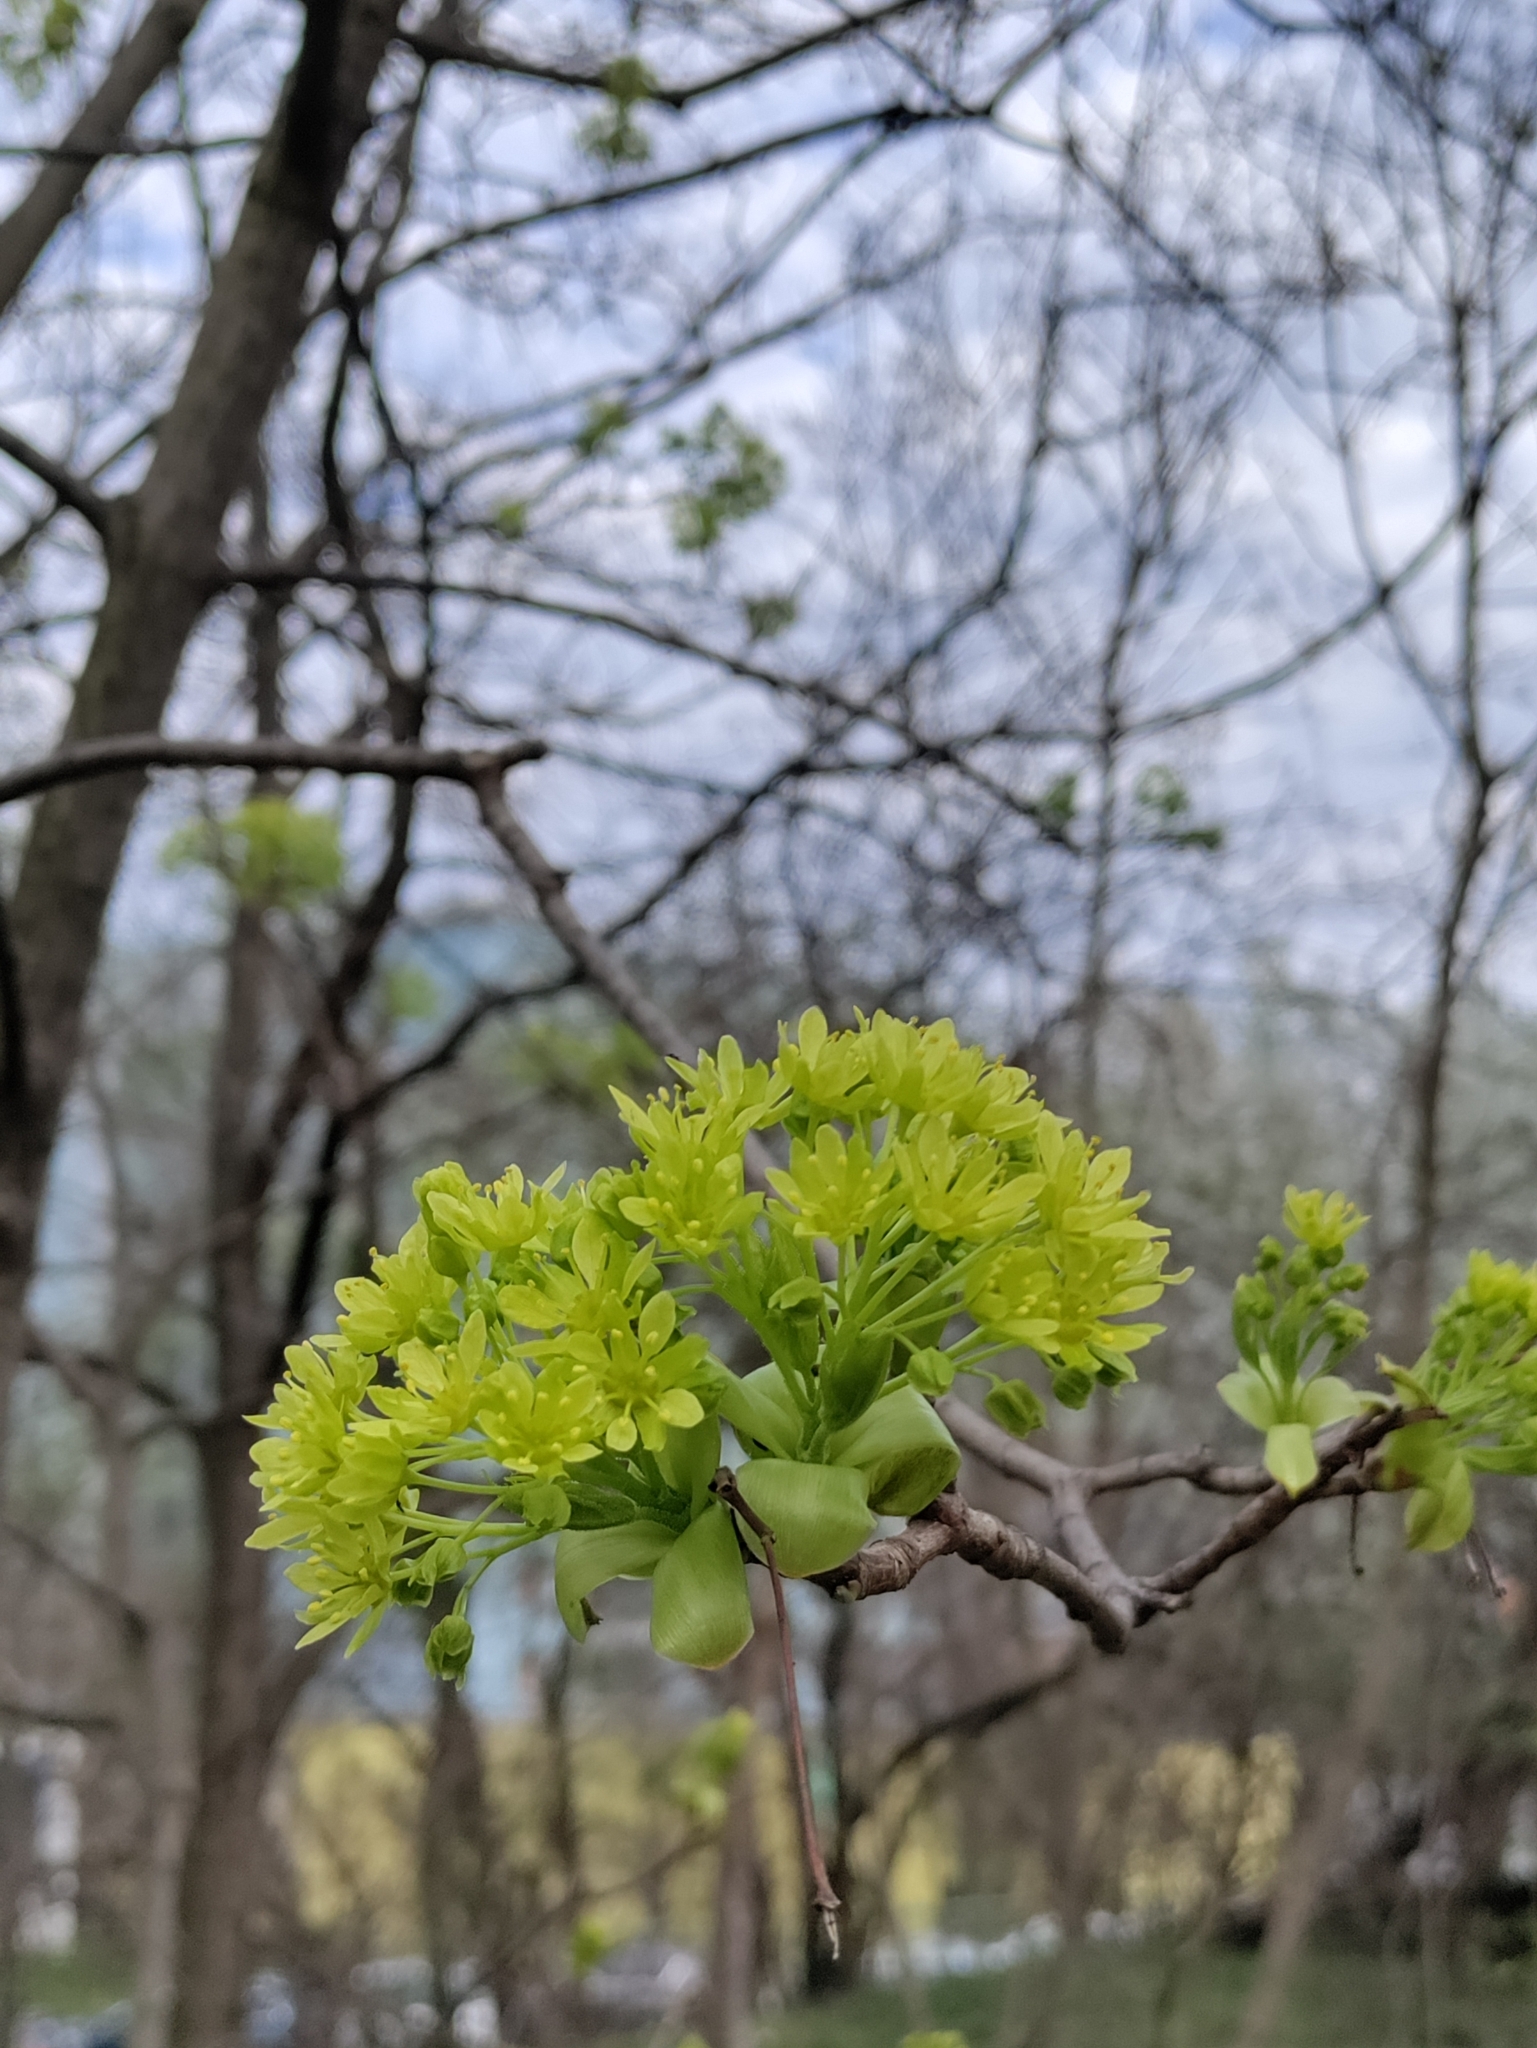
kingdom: Plantae
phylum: Tracheophyta
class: Magnoliopsida
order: Sapindales
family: Sapindaceae
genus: Acer
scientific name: Acer platanoides
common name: Norway maple
